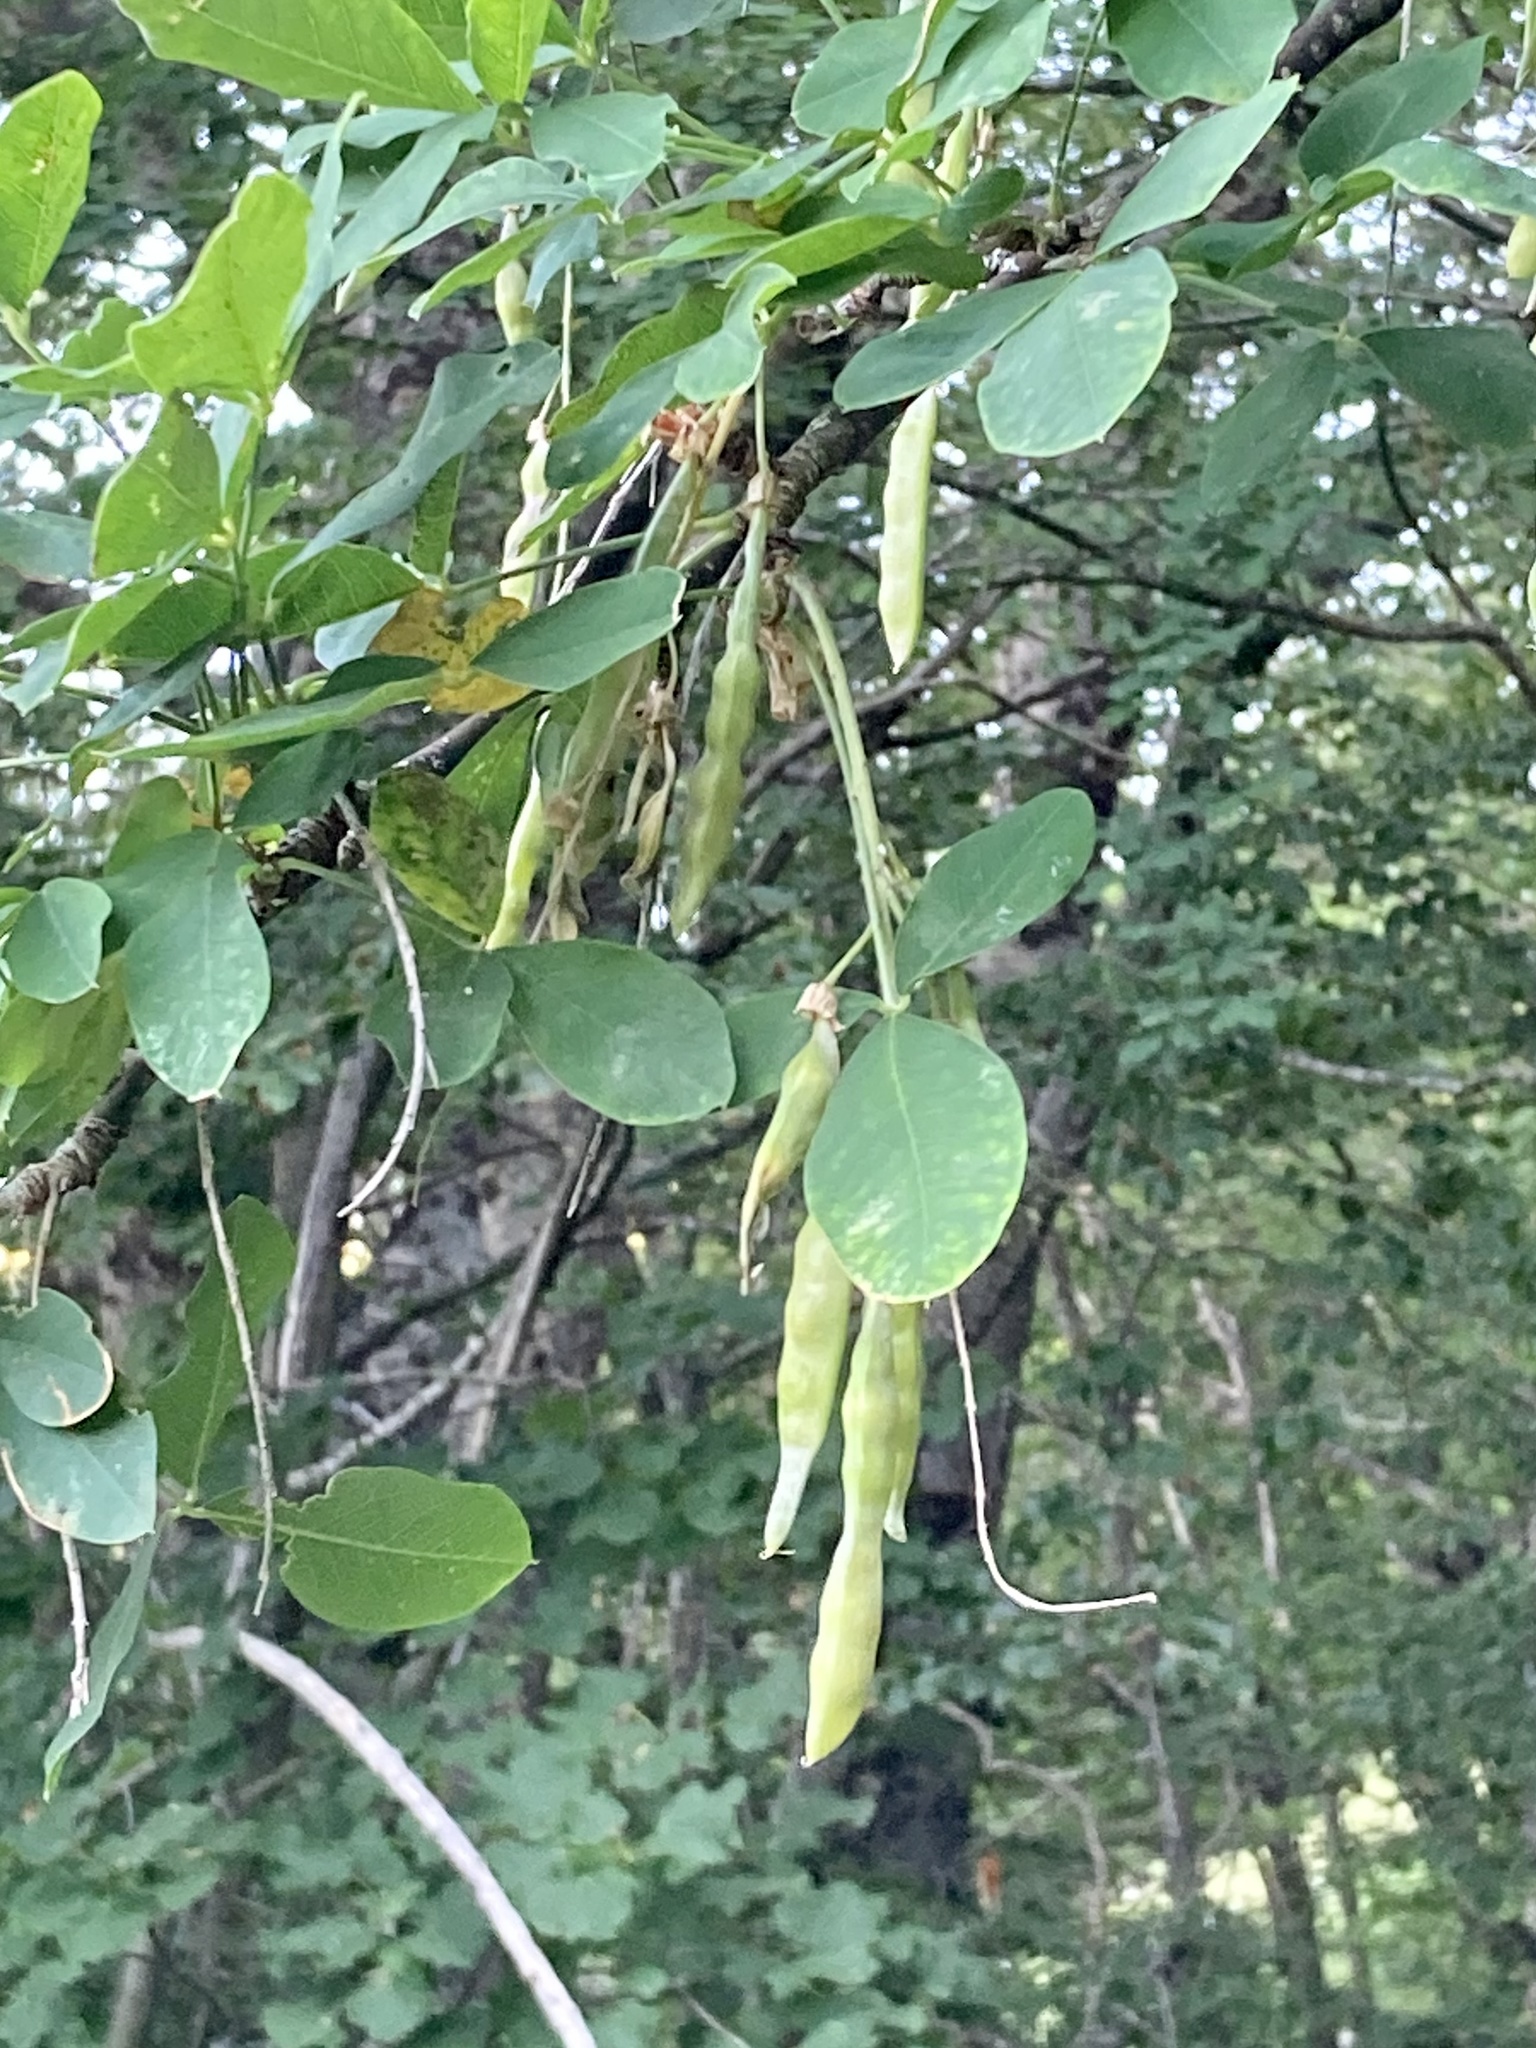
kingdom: Plantae
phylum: Tracheophyta
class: Magnoliopsida
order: Fabales
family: Fabaceae
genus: Laburnum
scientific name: Laburnum anagyroides
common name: Laburnum
